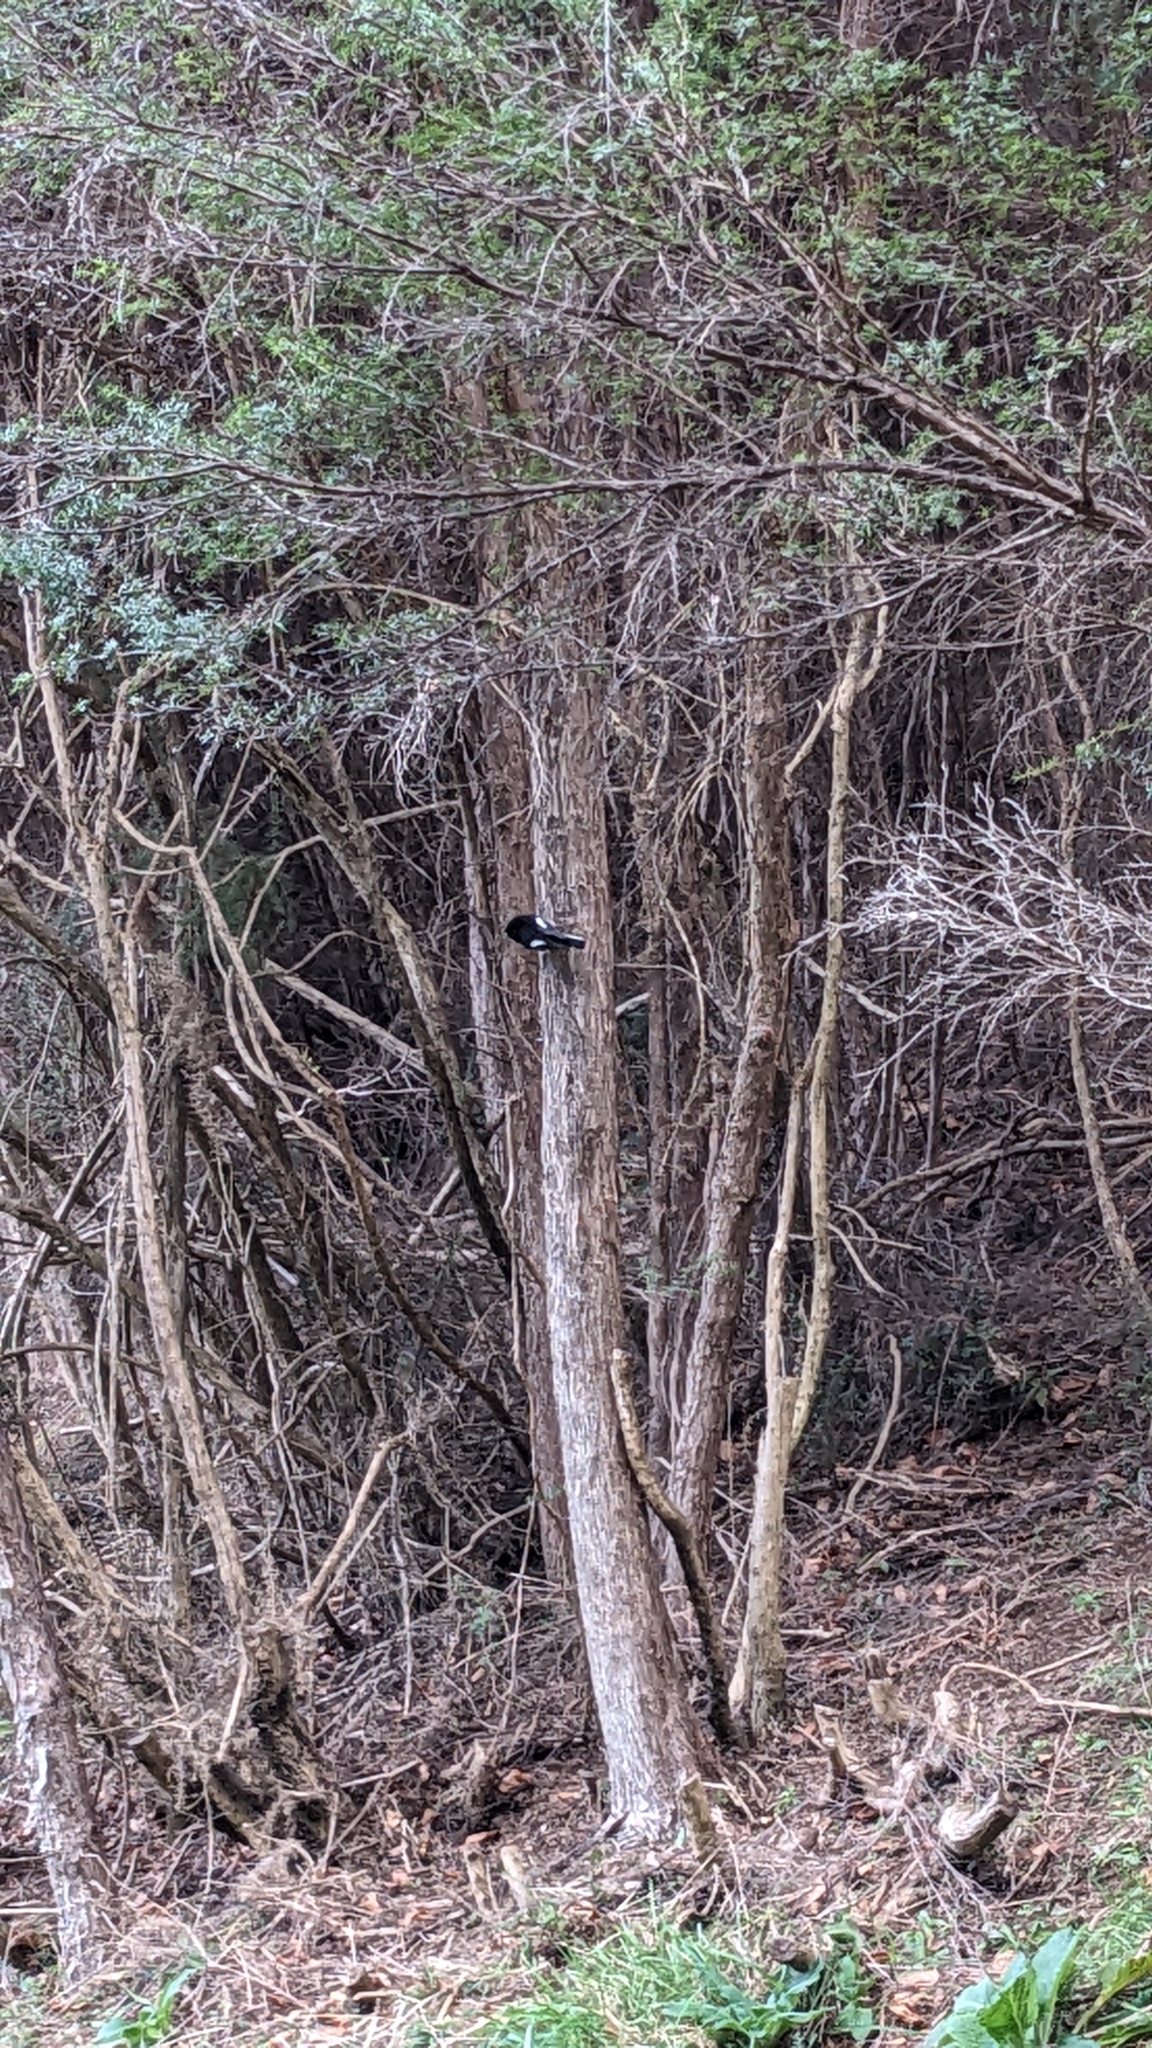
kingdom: Animalia
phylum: Chordata
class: Aves
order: Passeriformes
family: Petroicidae
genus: Petroica
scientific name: Petroica macrocephala
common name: Tomtit
